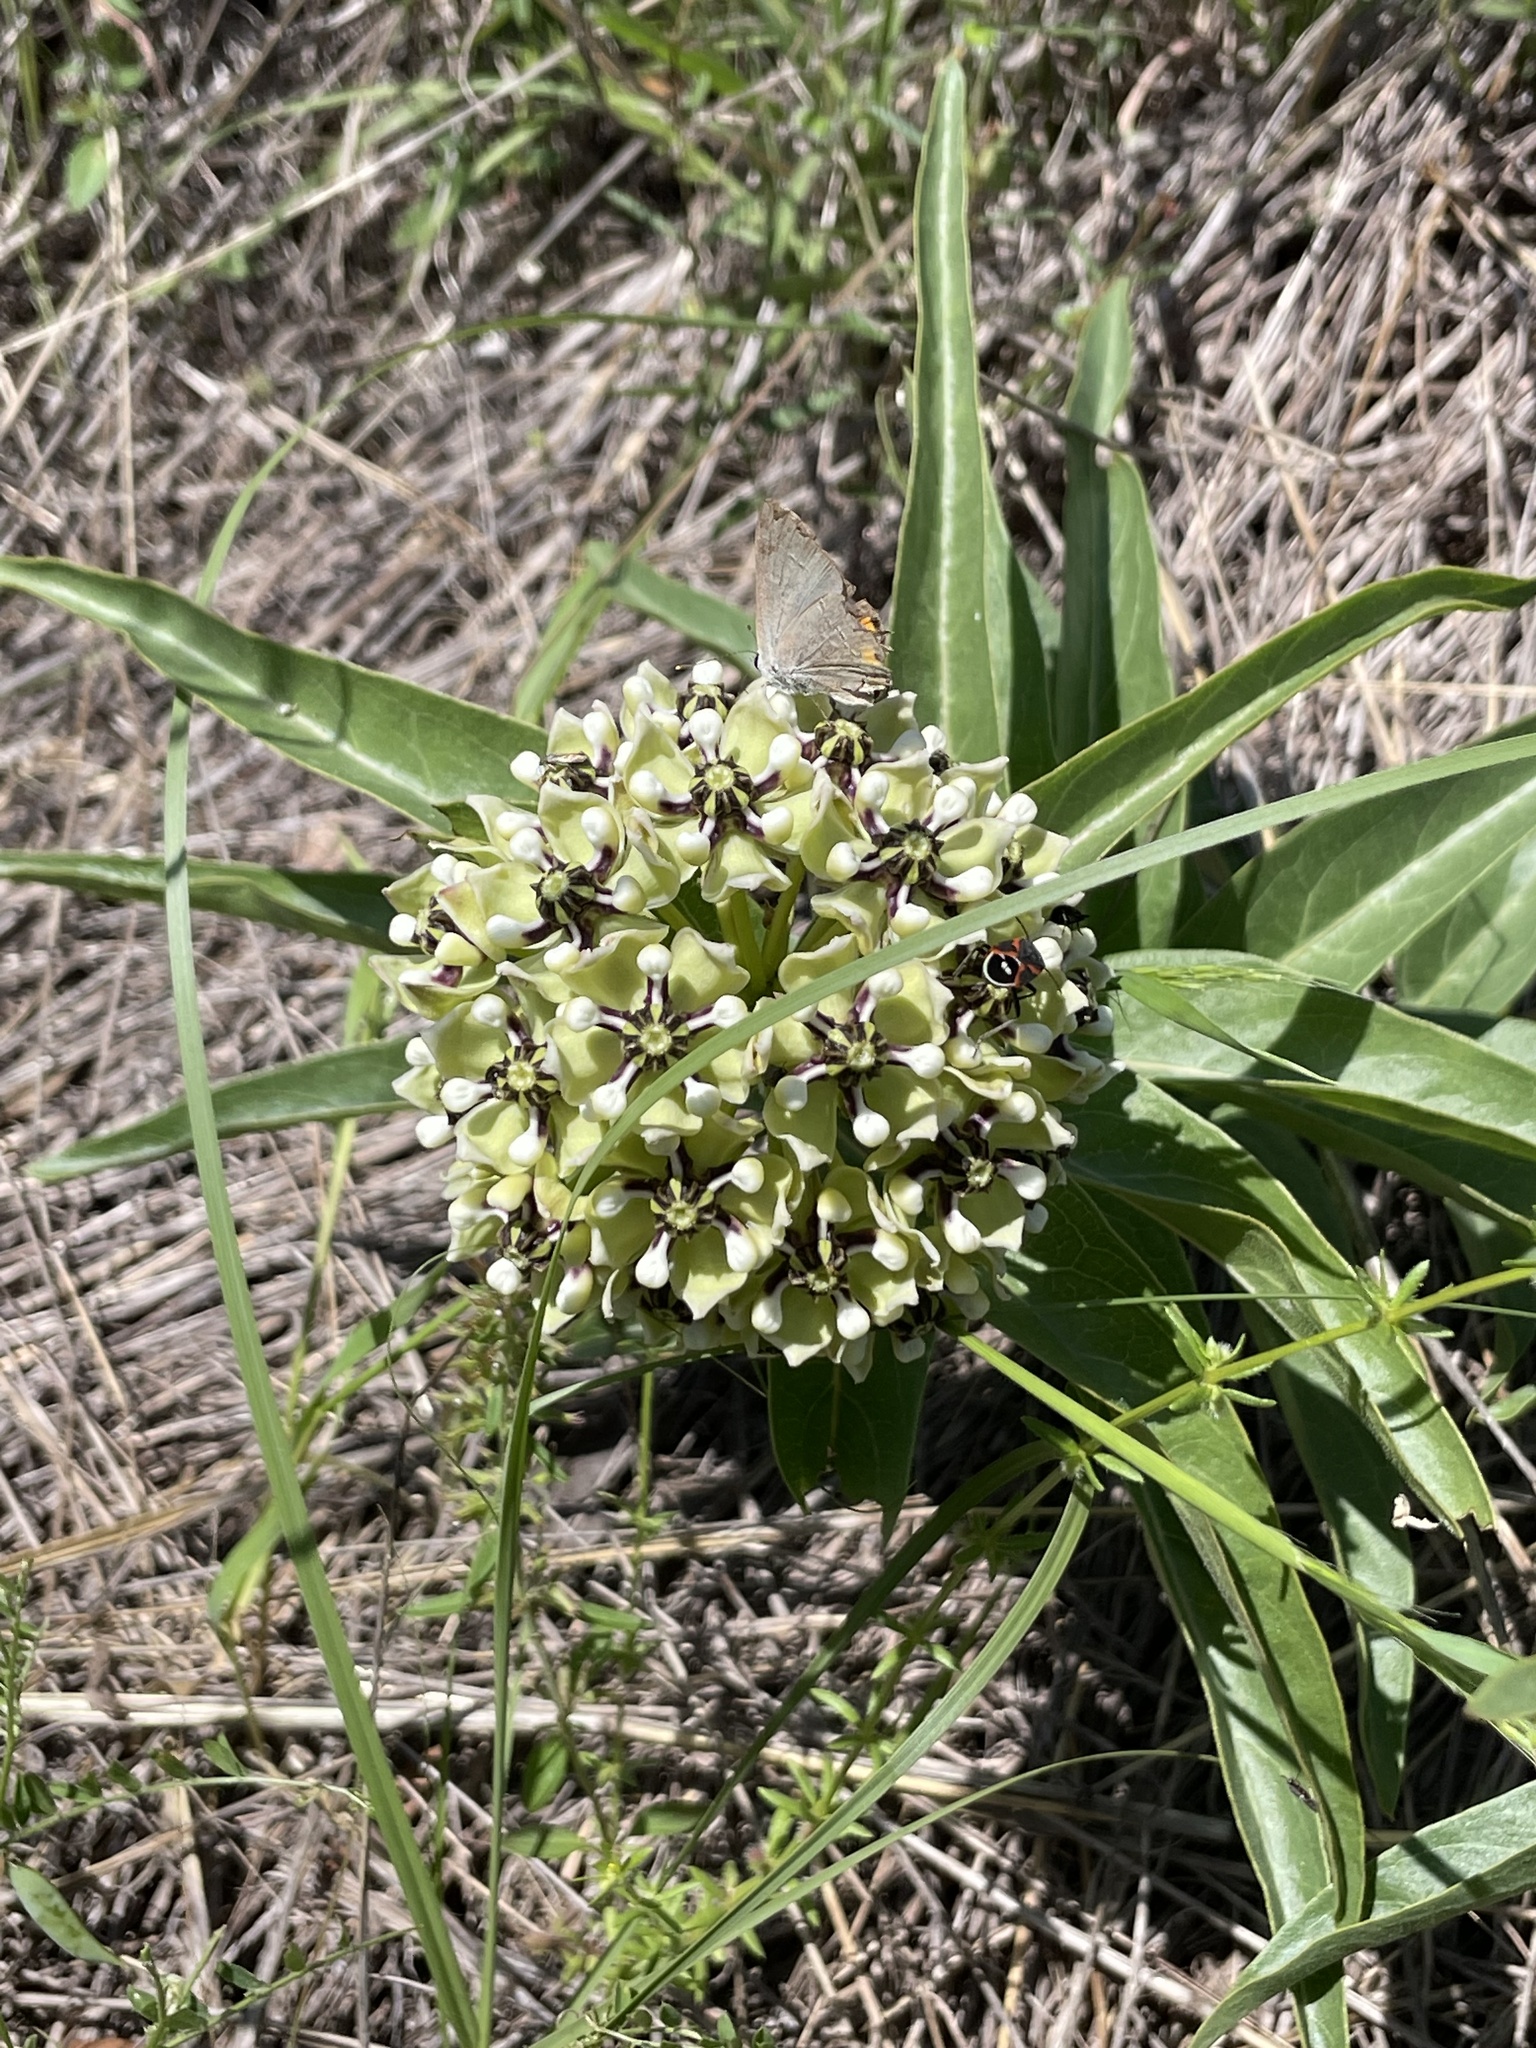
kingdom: Plantae
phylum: Tracheophyta
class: Magnoliopsida
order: Gentianales
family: Apocynaceae
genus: Asclepias
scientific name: Asclepias asperula
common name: Antelope horns
